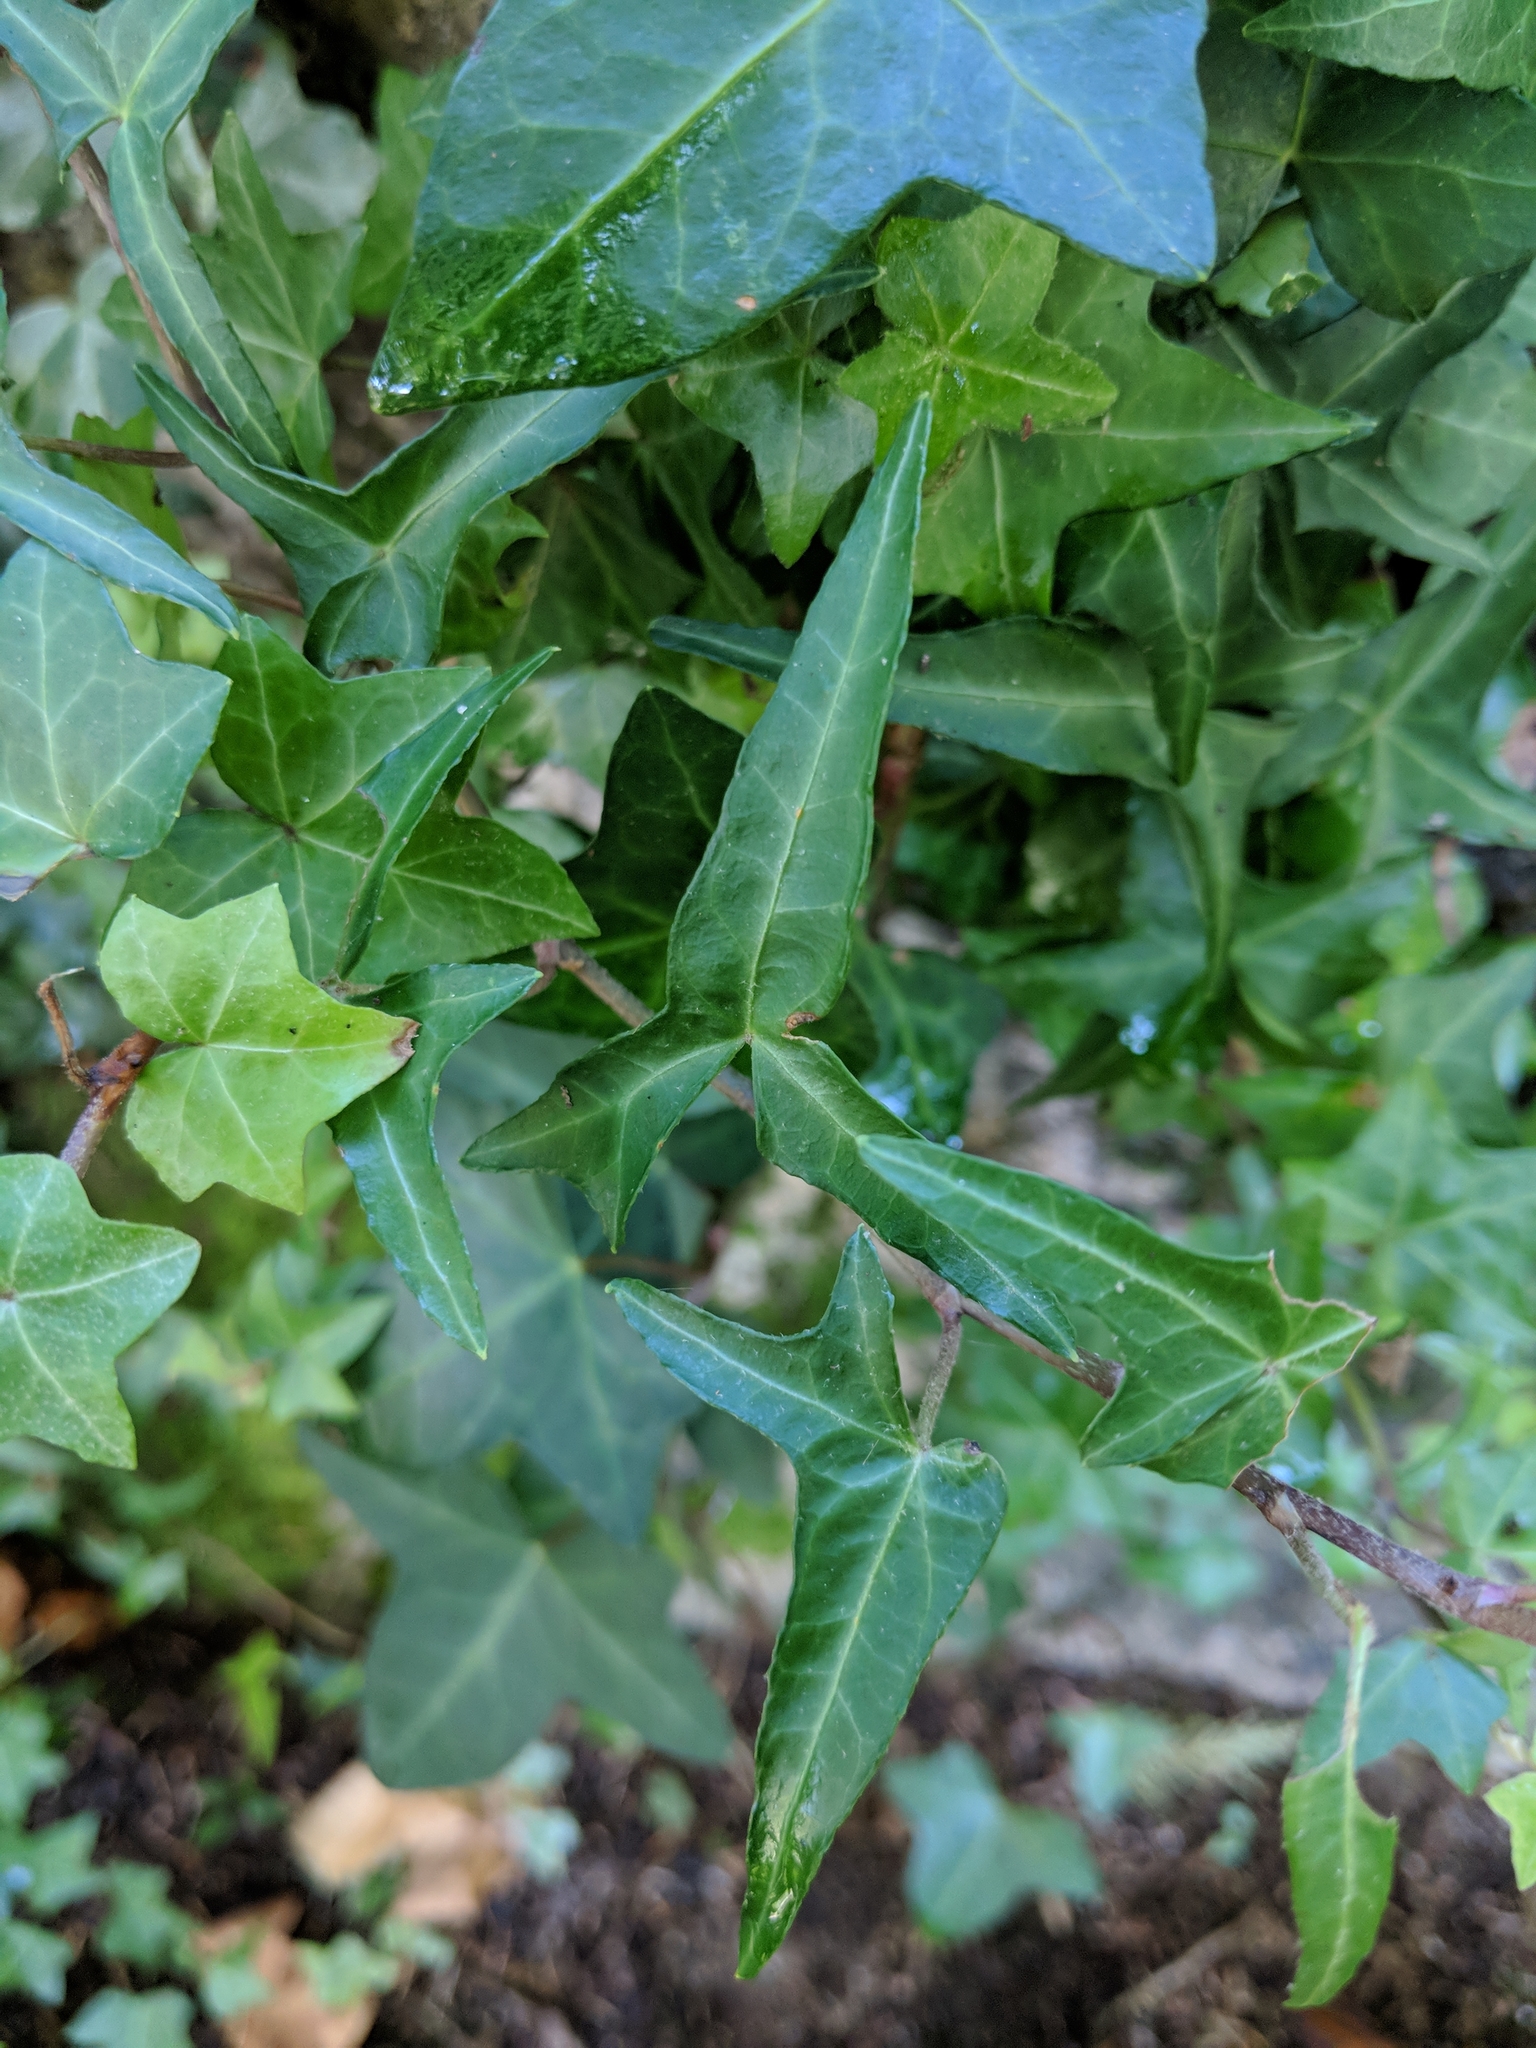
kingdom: Plantae
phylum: Tracheophyta
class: Magnoliopsida
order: Apiales
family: Araliaceae
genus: Hedera
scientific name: Hedera helix
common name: Ivy
